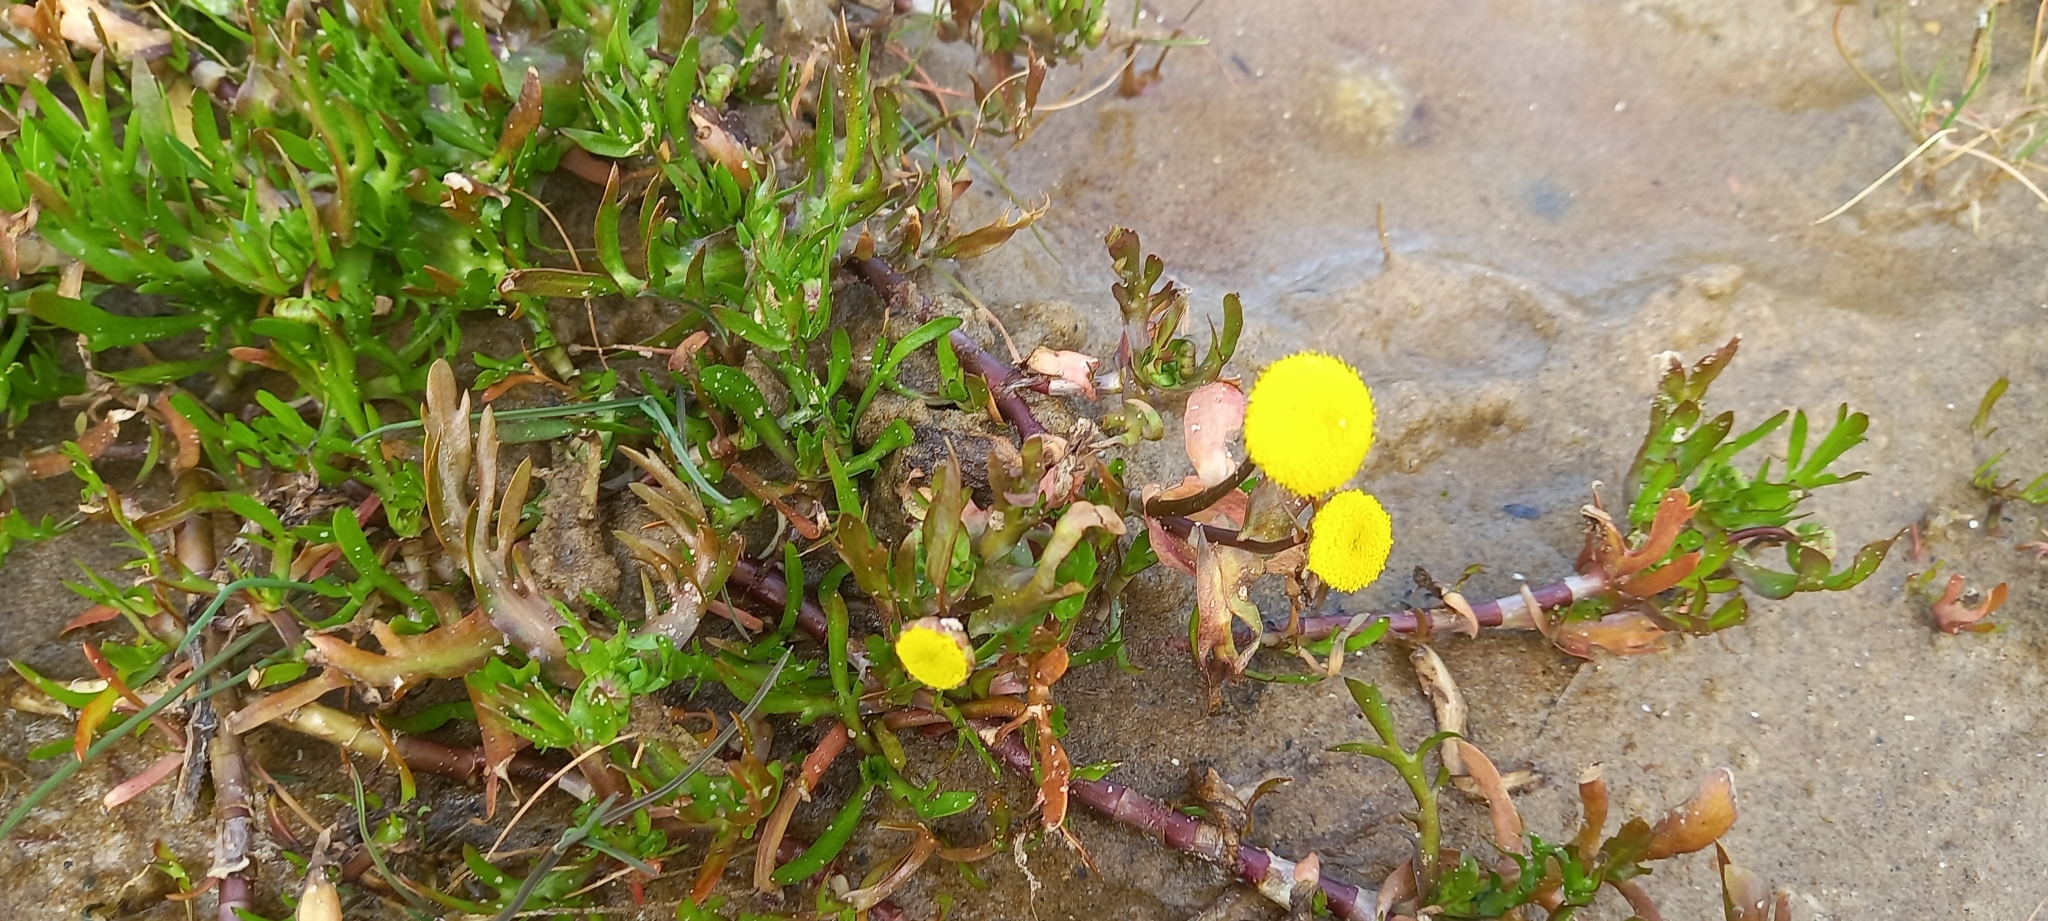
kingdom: Plantae
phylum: Tracheophyta
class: Magnoliopsida
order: Asterales
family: Asteraceae
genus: Cotula
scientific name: Cotula coronopifolia
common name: Buttonweed
